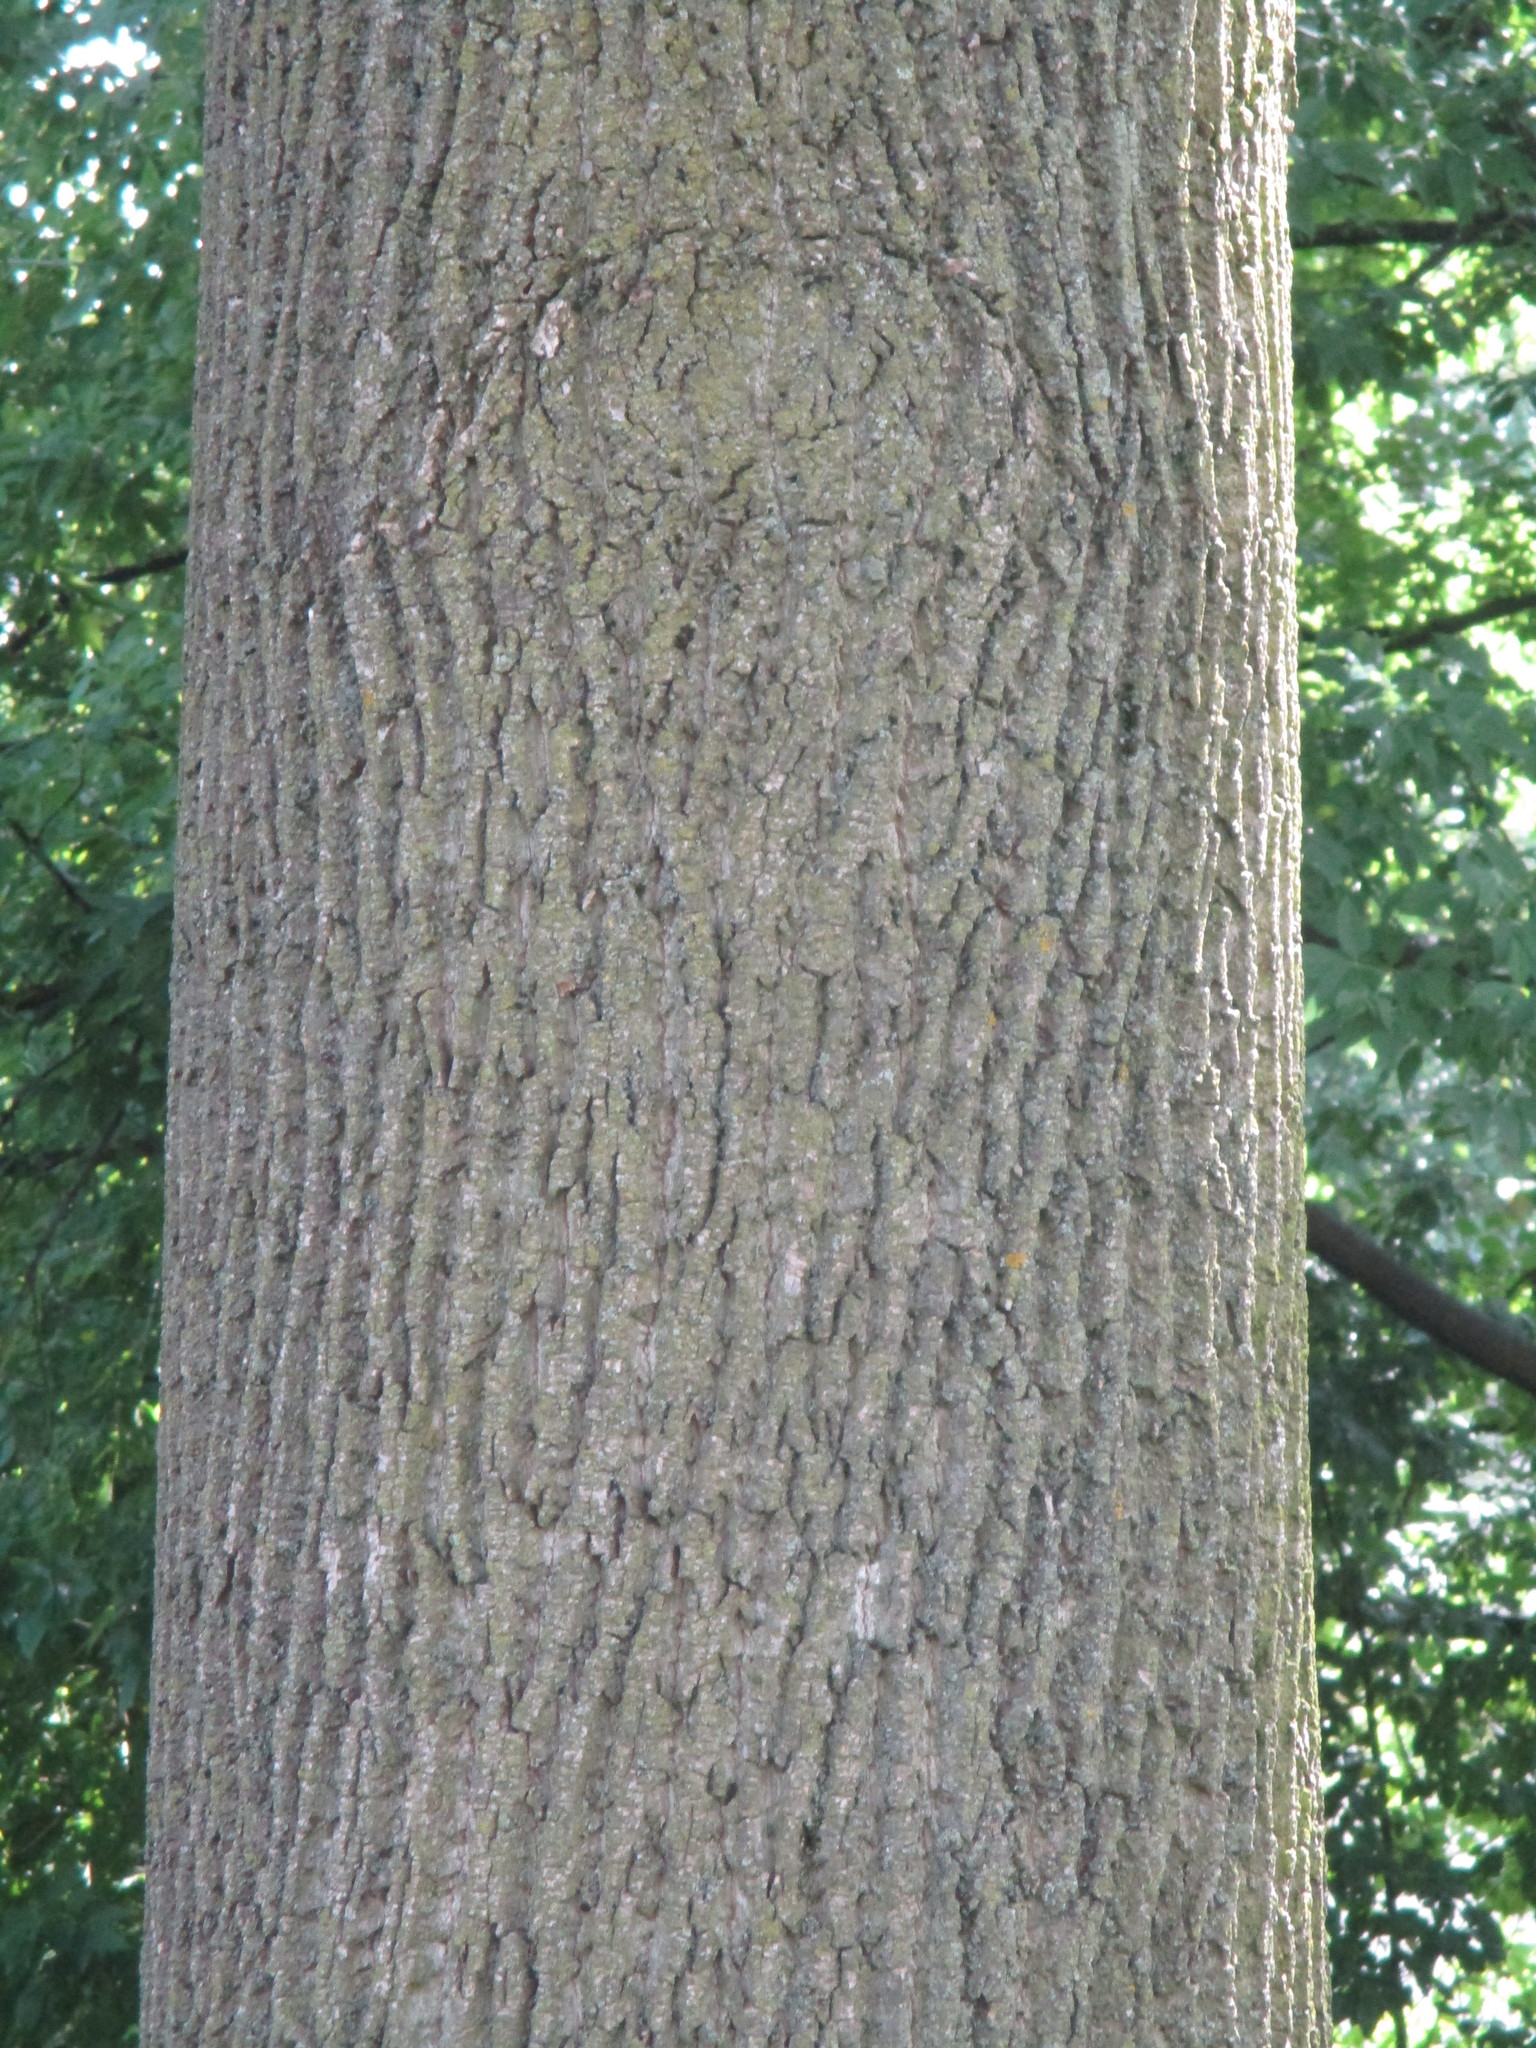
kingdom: Plantae
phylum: Tracheophyta
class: Magnoliopsida
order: Magnoliales
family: Magnoliaceae
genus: Liriodendron
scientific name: Liriodendron tulipifera
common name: Tulip tree
